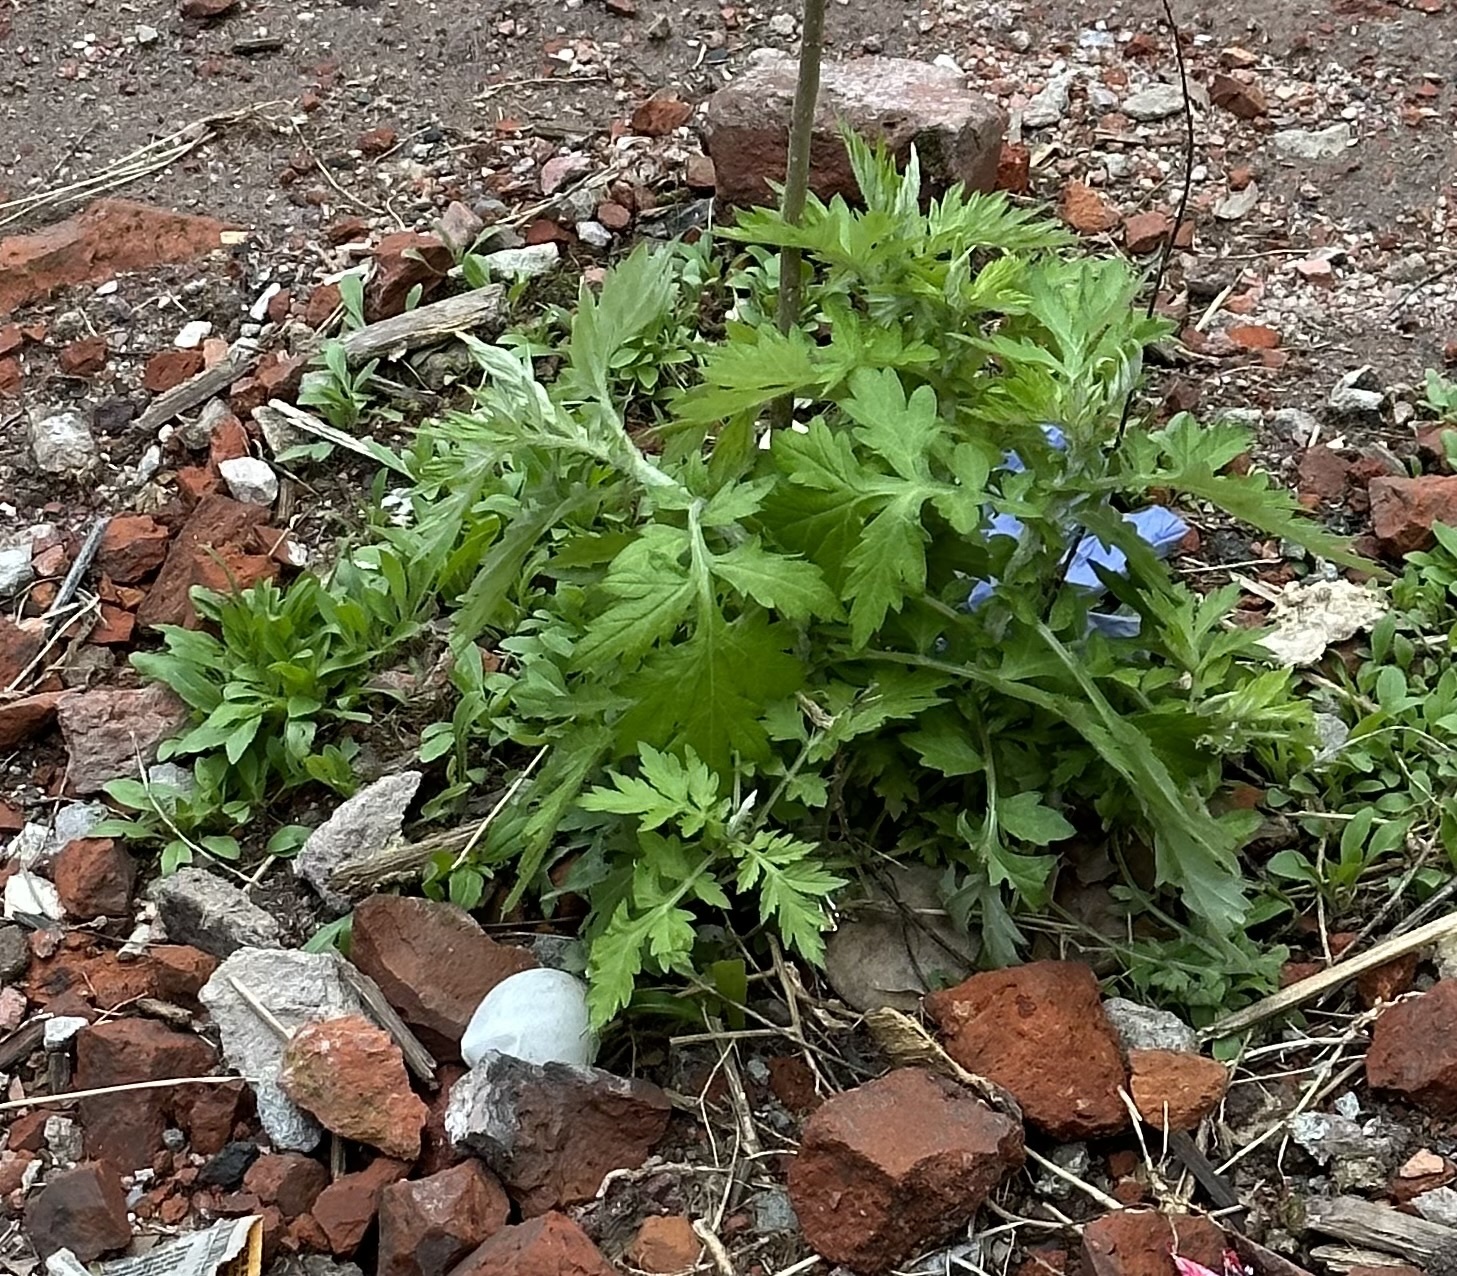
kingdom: Plantae
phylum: Tracheophyta
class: Magnoliopsida
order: Asterales
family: Asteraceae
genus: Artemisia
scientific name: Artemisia vulgaris
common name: Mugwort
